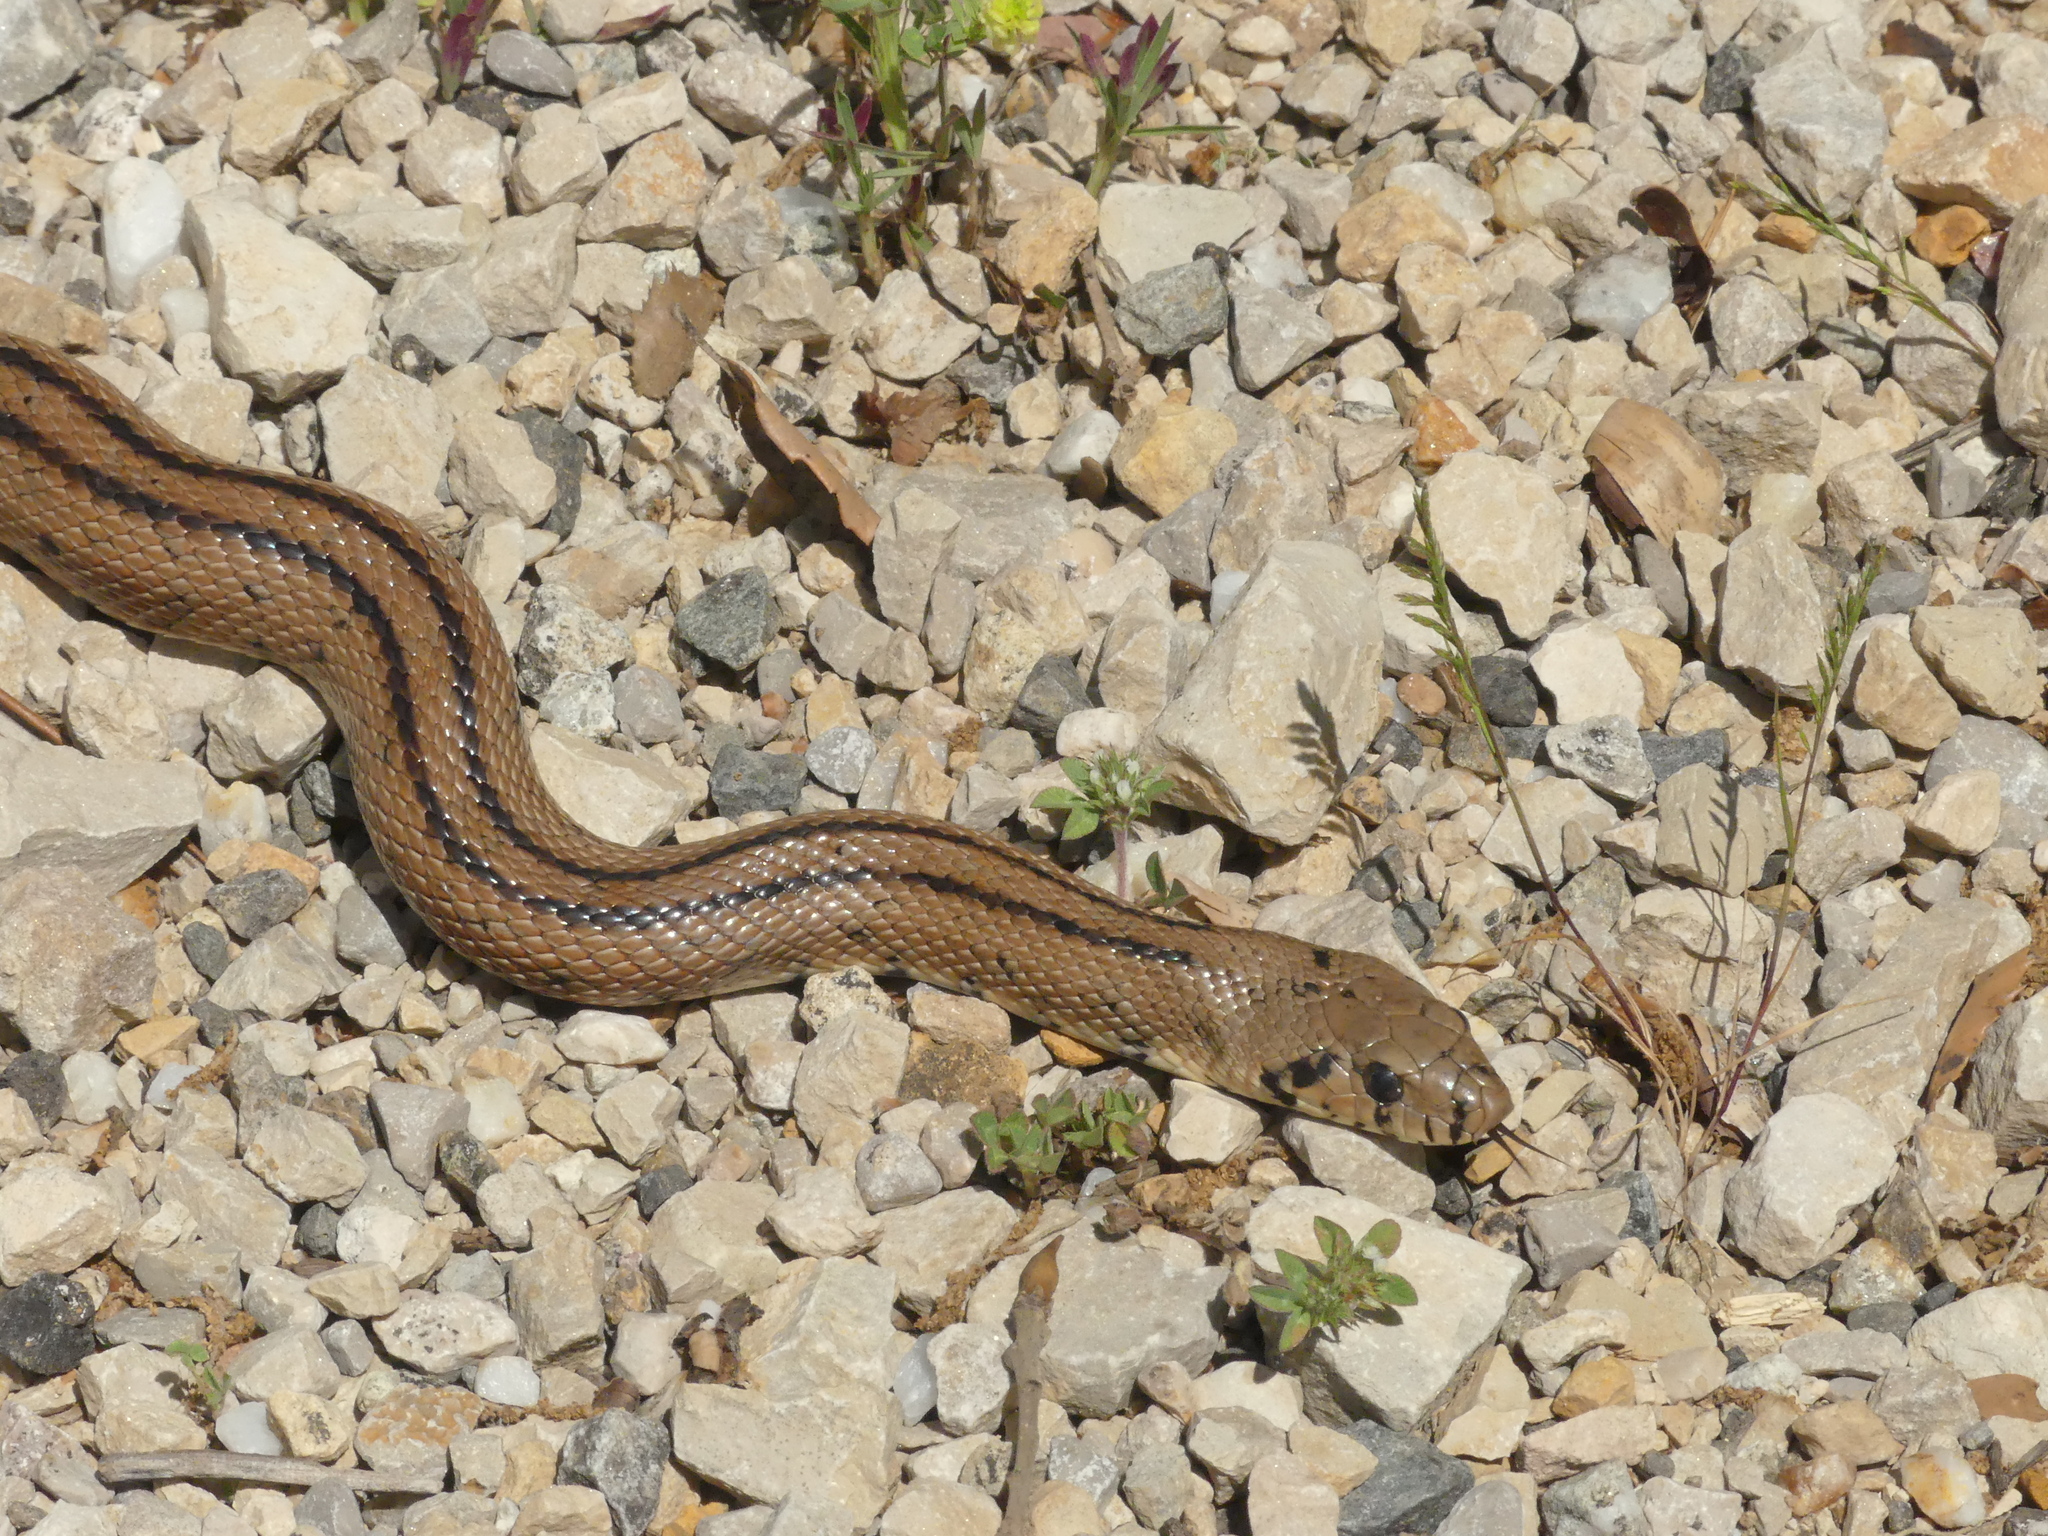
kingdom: Animalia
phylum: Chordata
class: Squamata
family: Colubridae
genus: Zamenis
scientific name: Zamenis scalaris
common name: Ladder snakes
